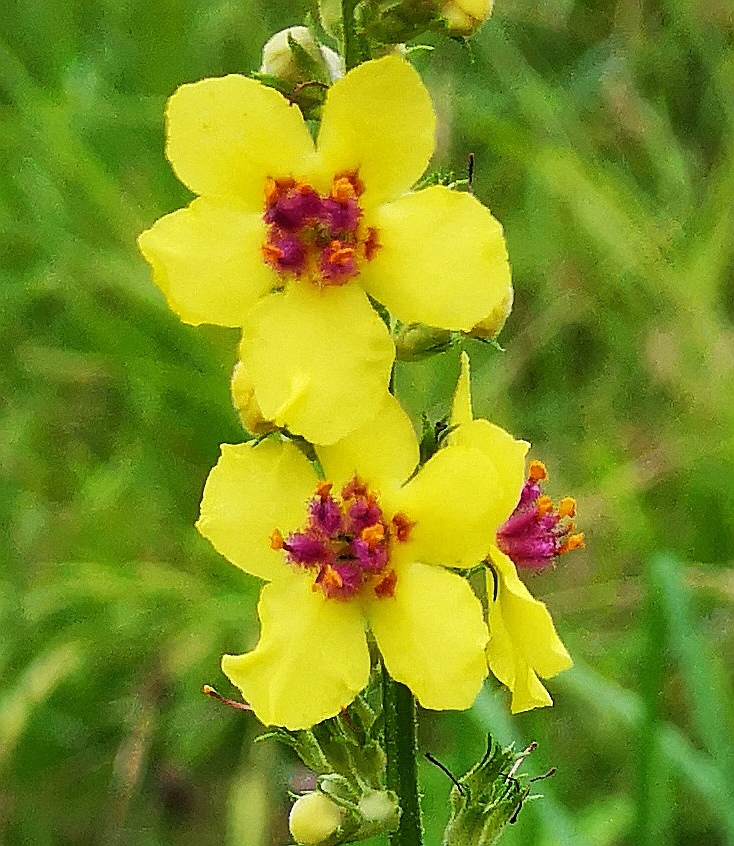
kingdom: Plantae
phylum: Tracheophyta
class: Magnoliopsida
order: Lamiales
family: Scrophulariaceae
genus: Verbascum
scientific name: Verbascum chaixii
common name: Nettle-leaved mullein
